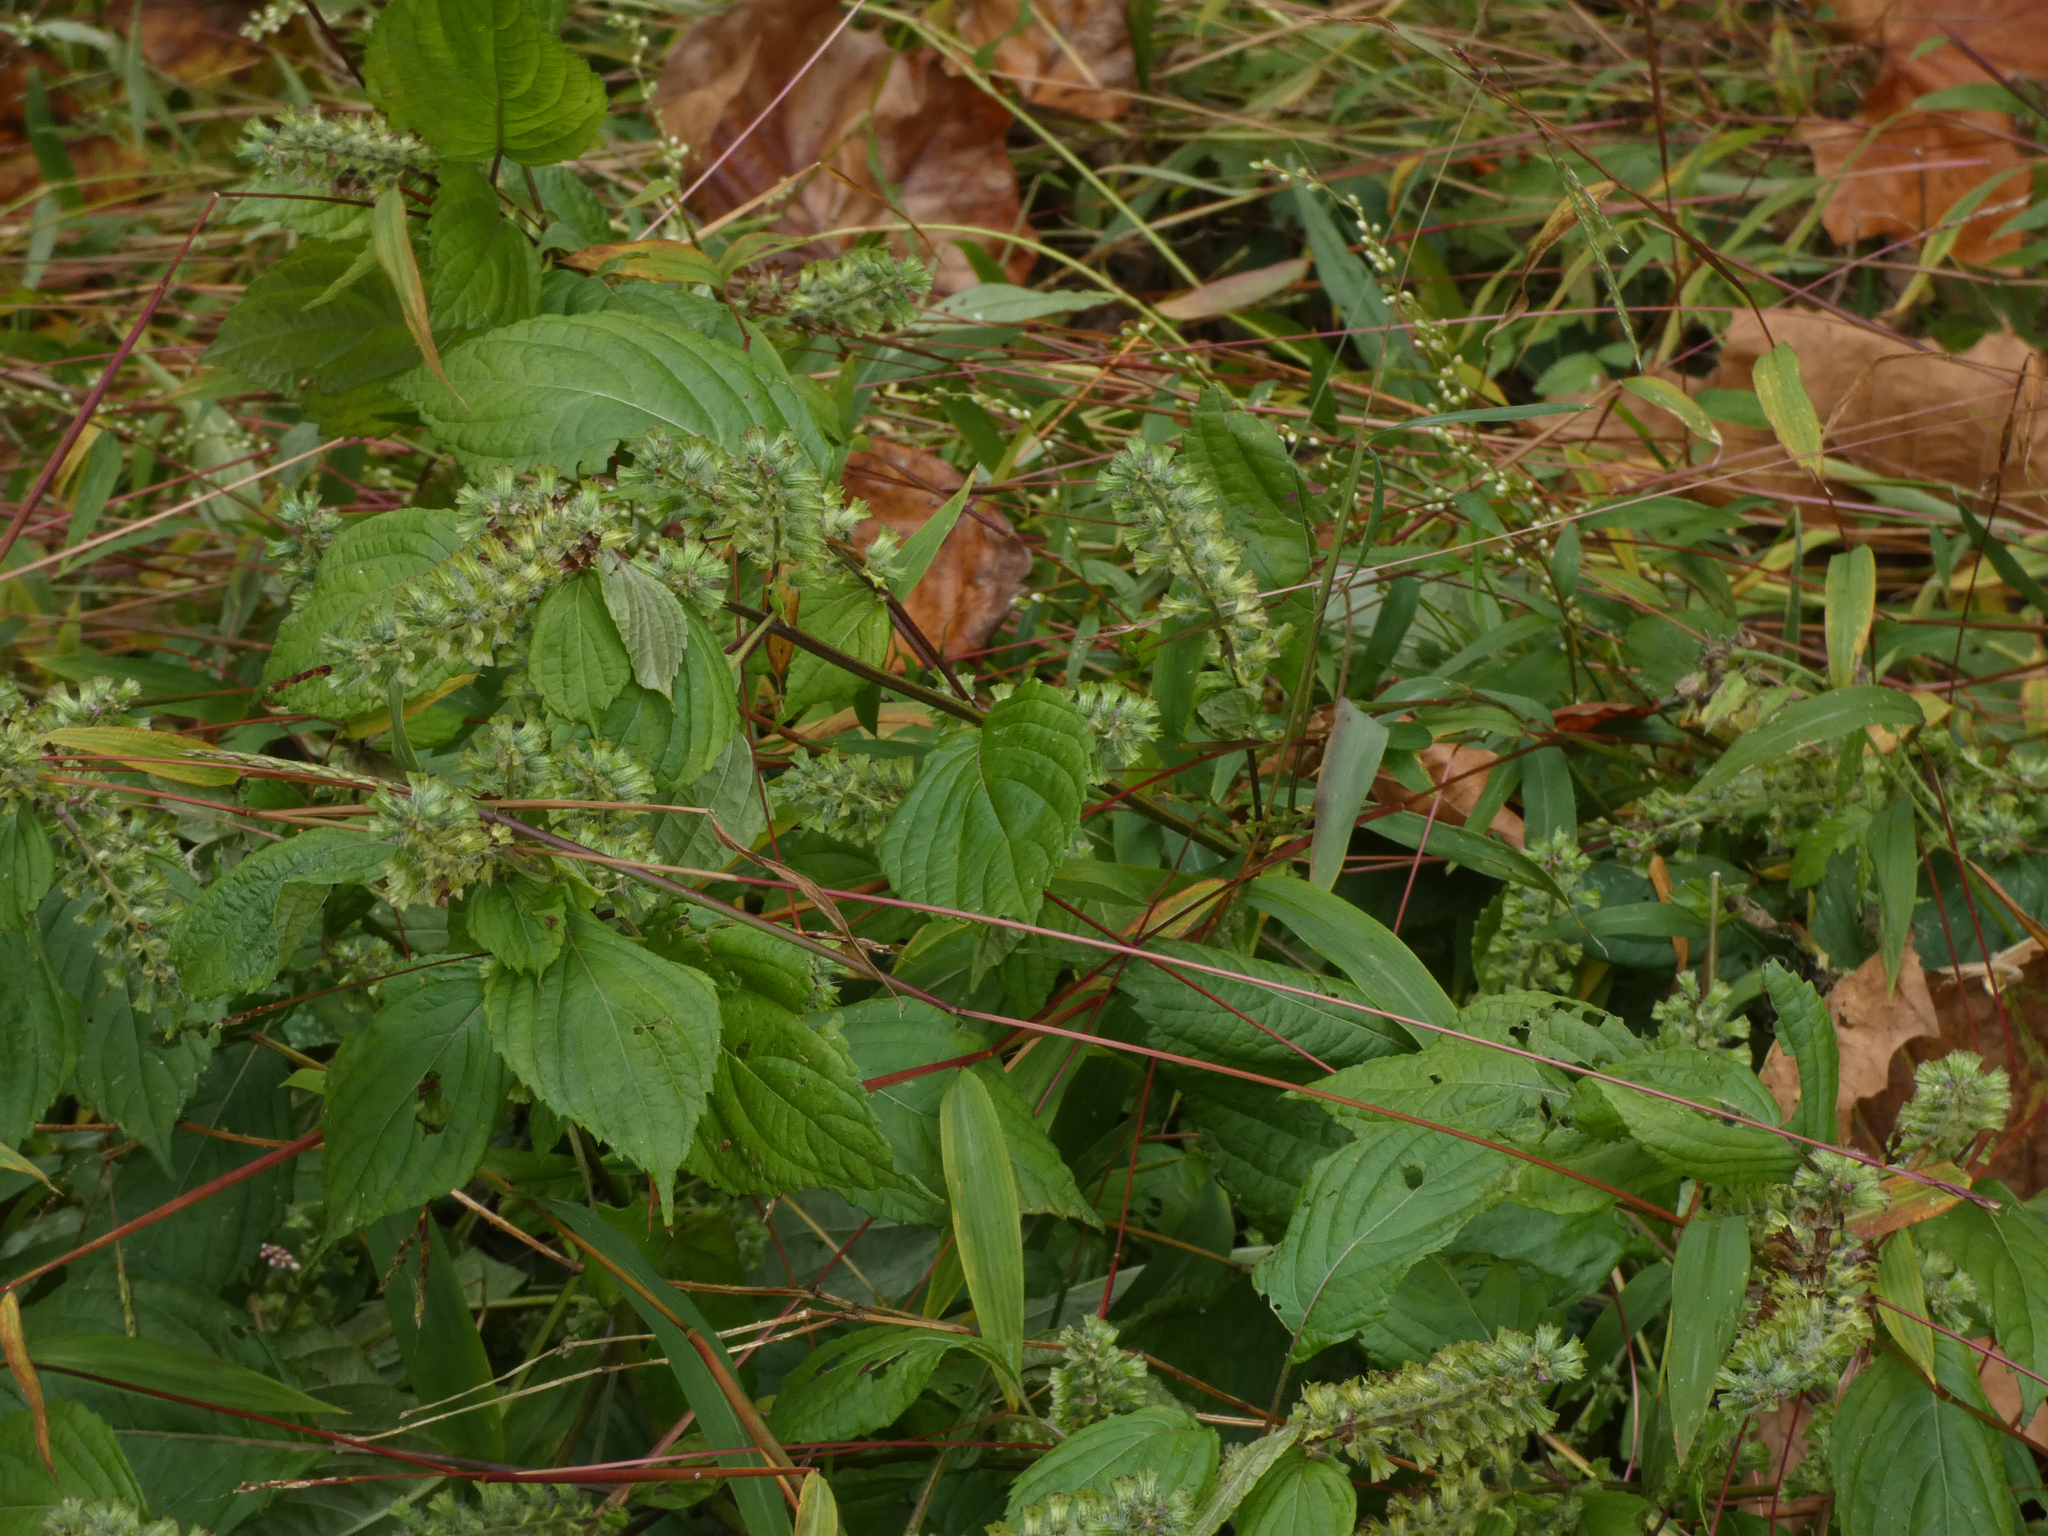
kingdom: Plantae
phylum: Tracheophyta
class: Magnoliopsida
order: Lamiales
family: Lamiaceae
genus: Perilla
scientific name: Perilla frutescens
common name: Perilla
